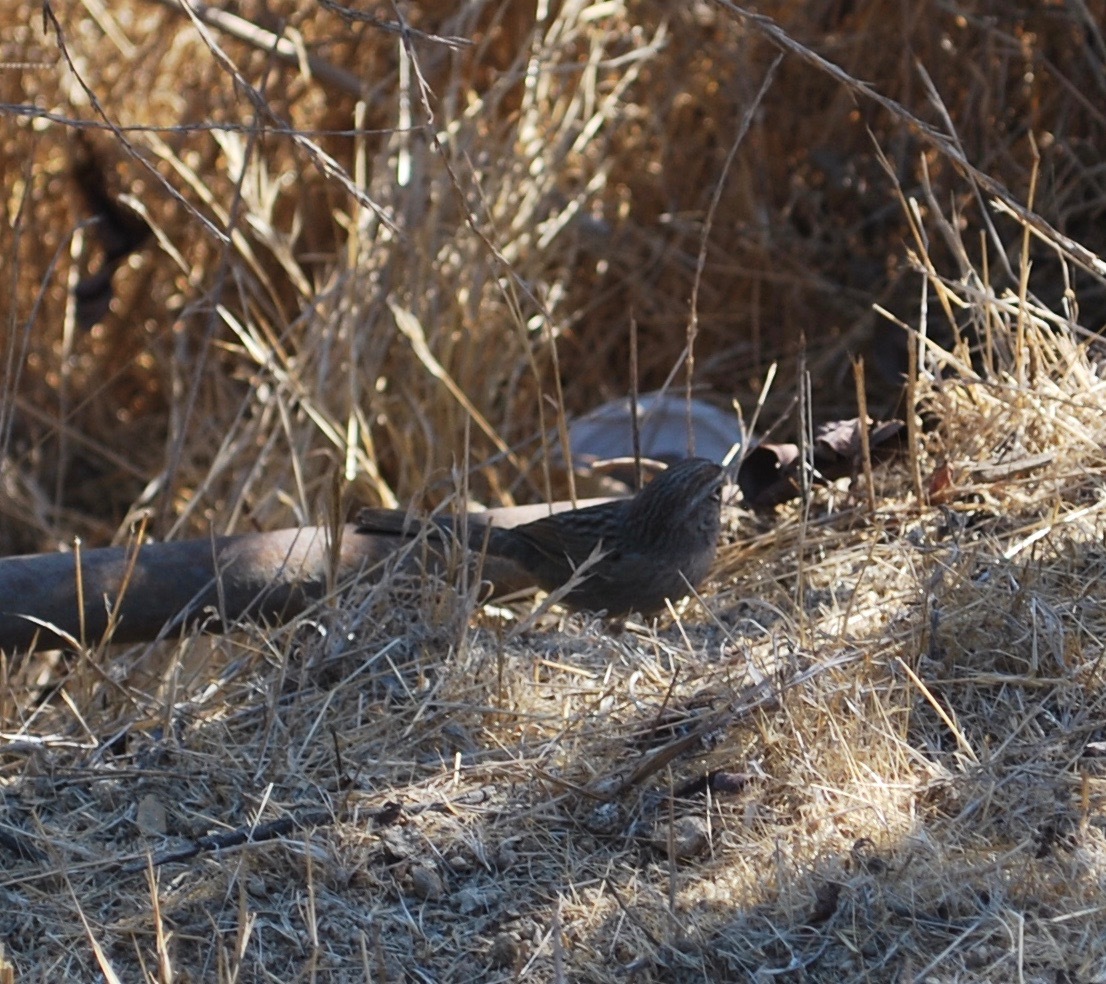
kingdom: Animalia
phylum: Chordata
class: Aves
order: Passeriformes
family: Passerellidae
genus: Aimophila
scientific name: Aimophila ruficeps
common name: Rufous-crowned sparrow
